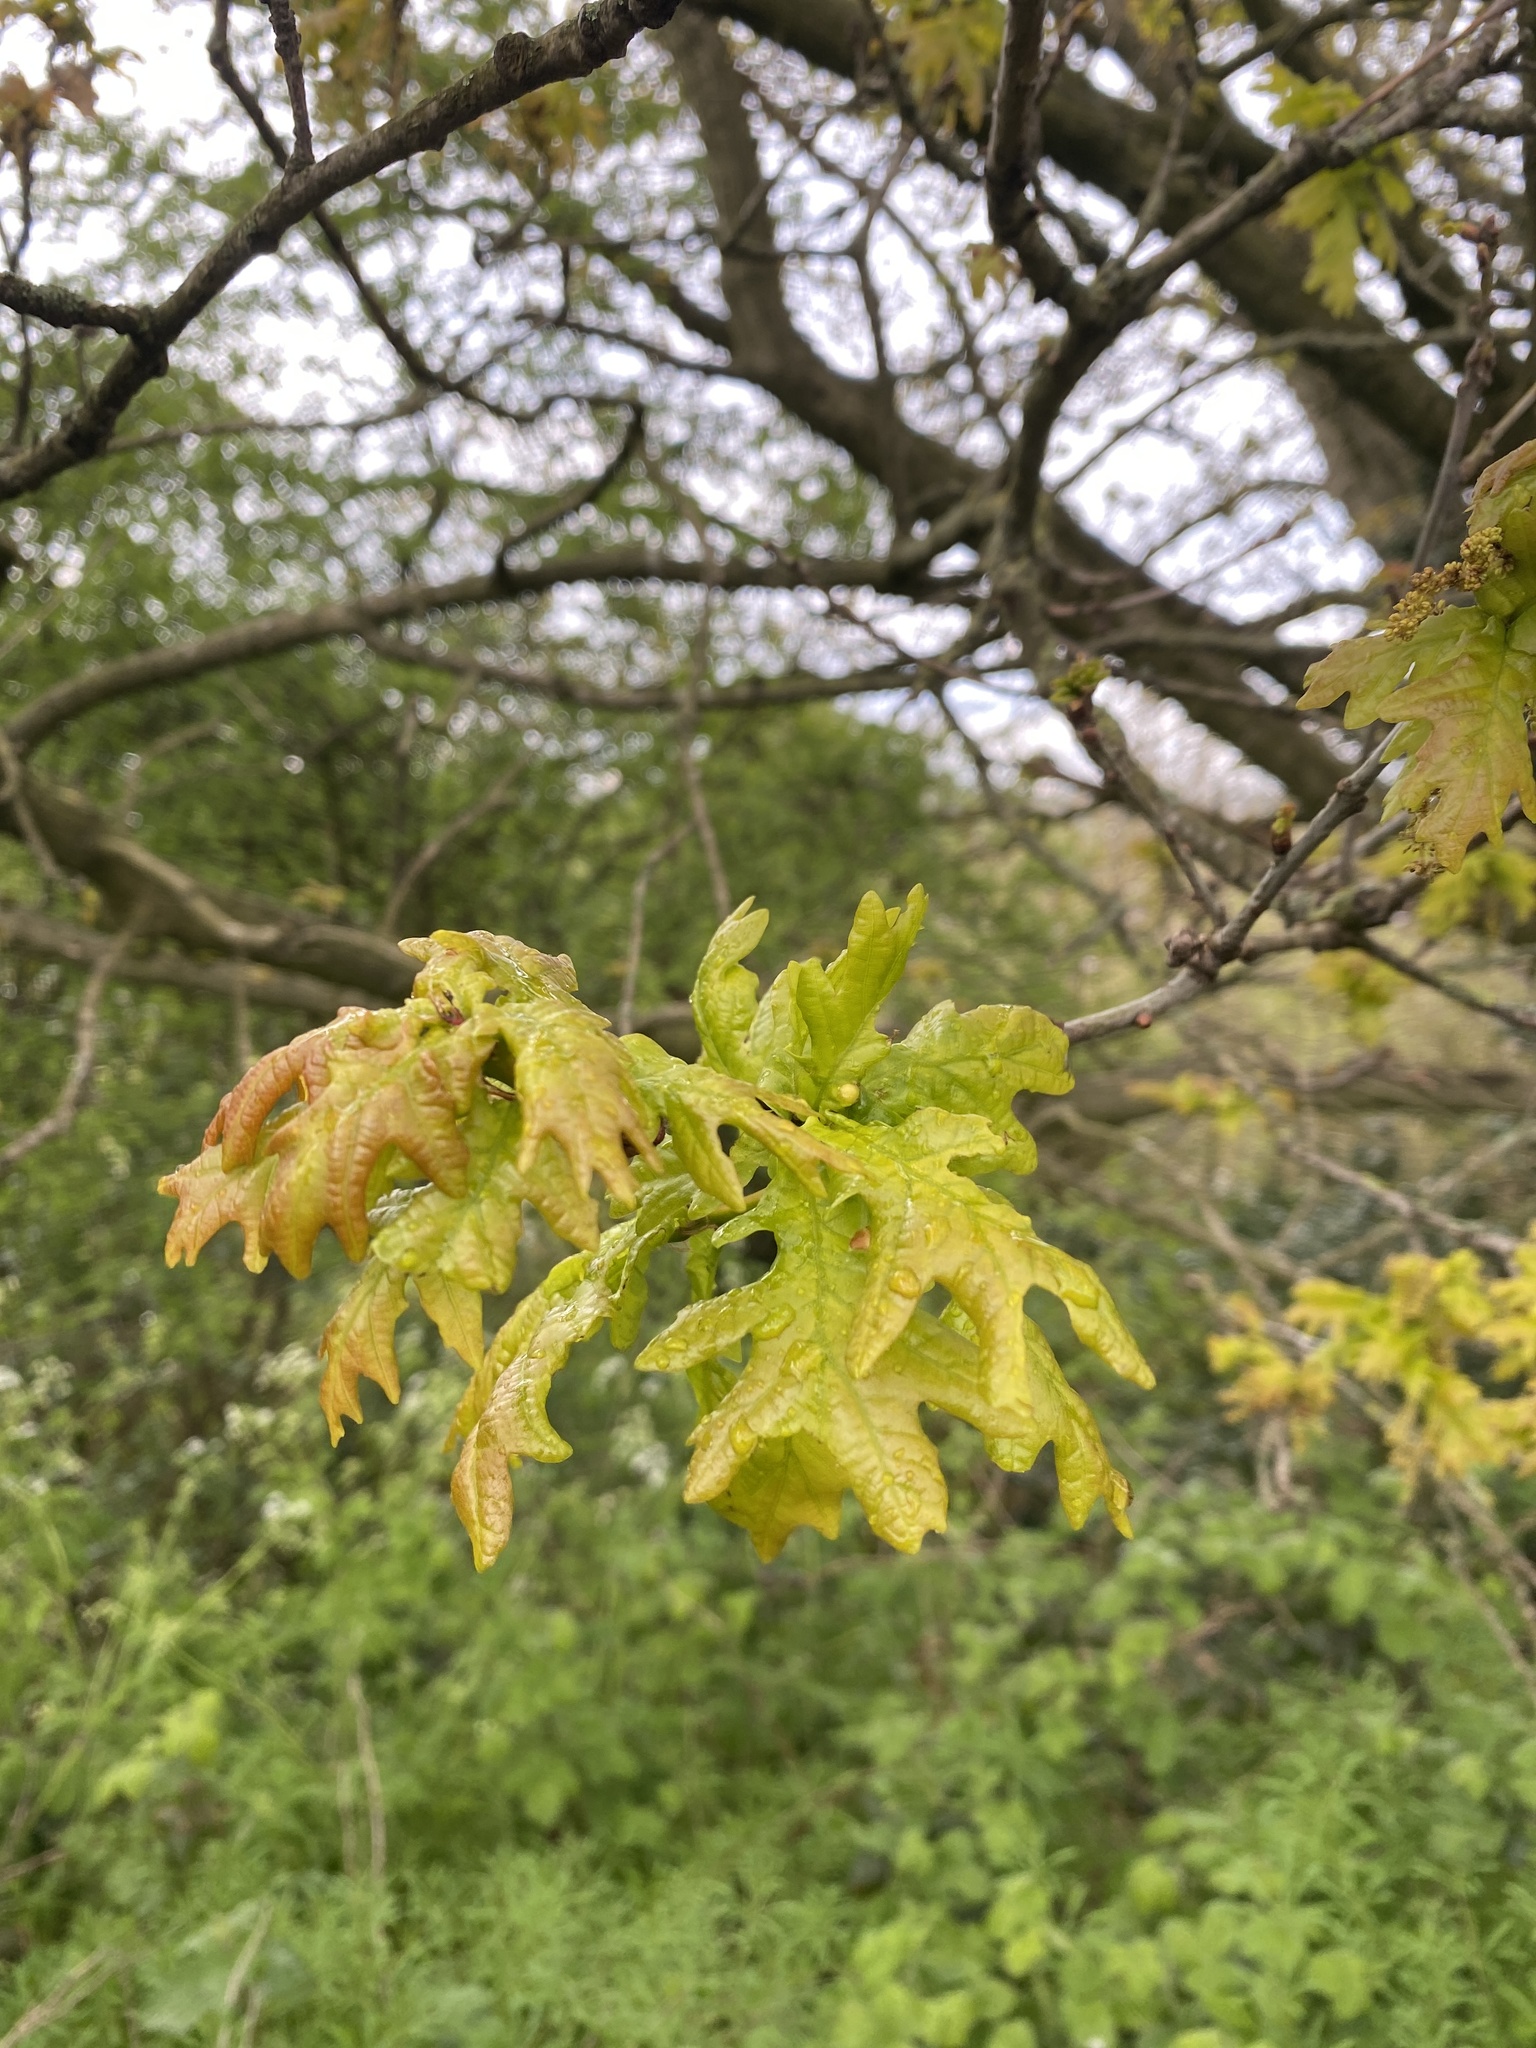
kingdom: Plantae
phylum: Tracheophyta
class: Magnoliopsida
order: Fagales
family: Fagaceae
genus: Quercus
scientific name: Quercus robur
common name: Pedunculate oak
